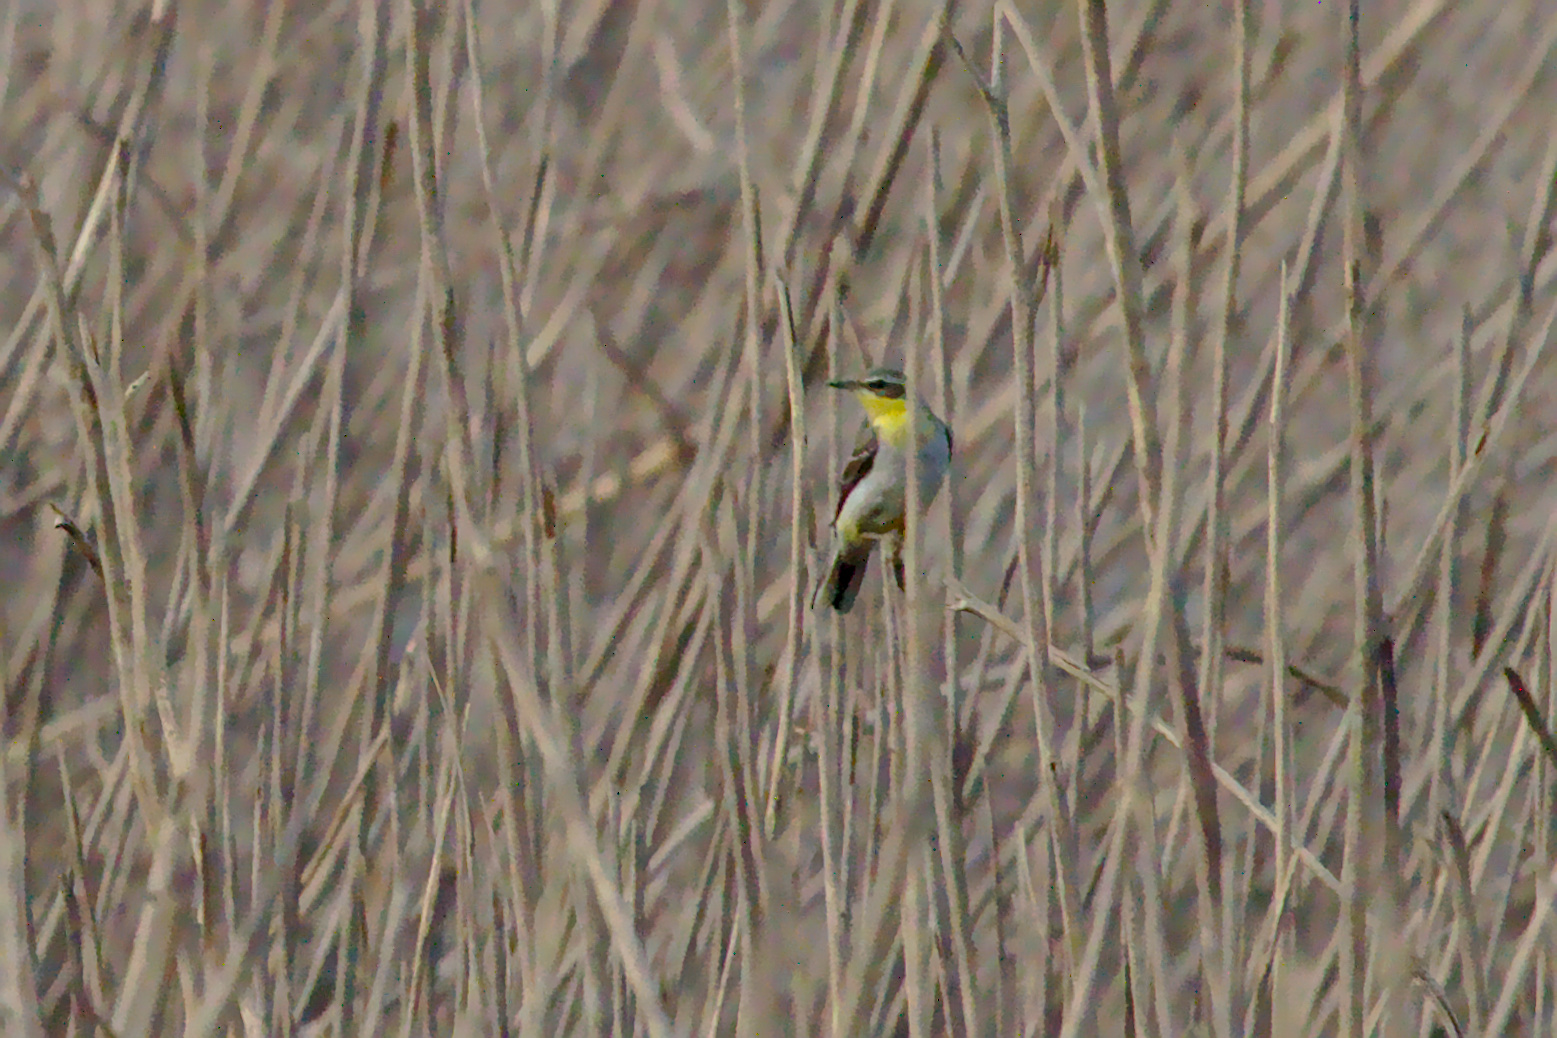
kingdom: Animalia
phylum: Chordata
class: Aves
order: Passeriformes
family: Motacillidae
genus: Motacilla
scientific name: Motacilla flava
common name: Western yellow wagtail
